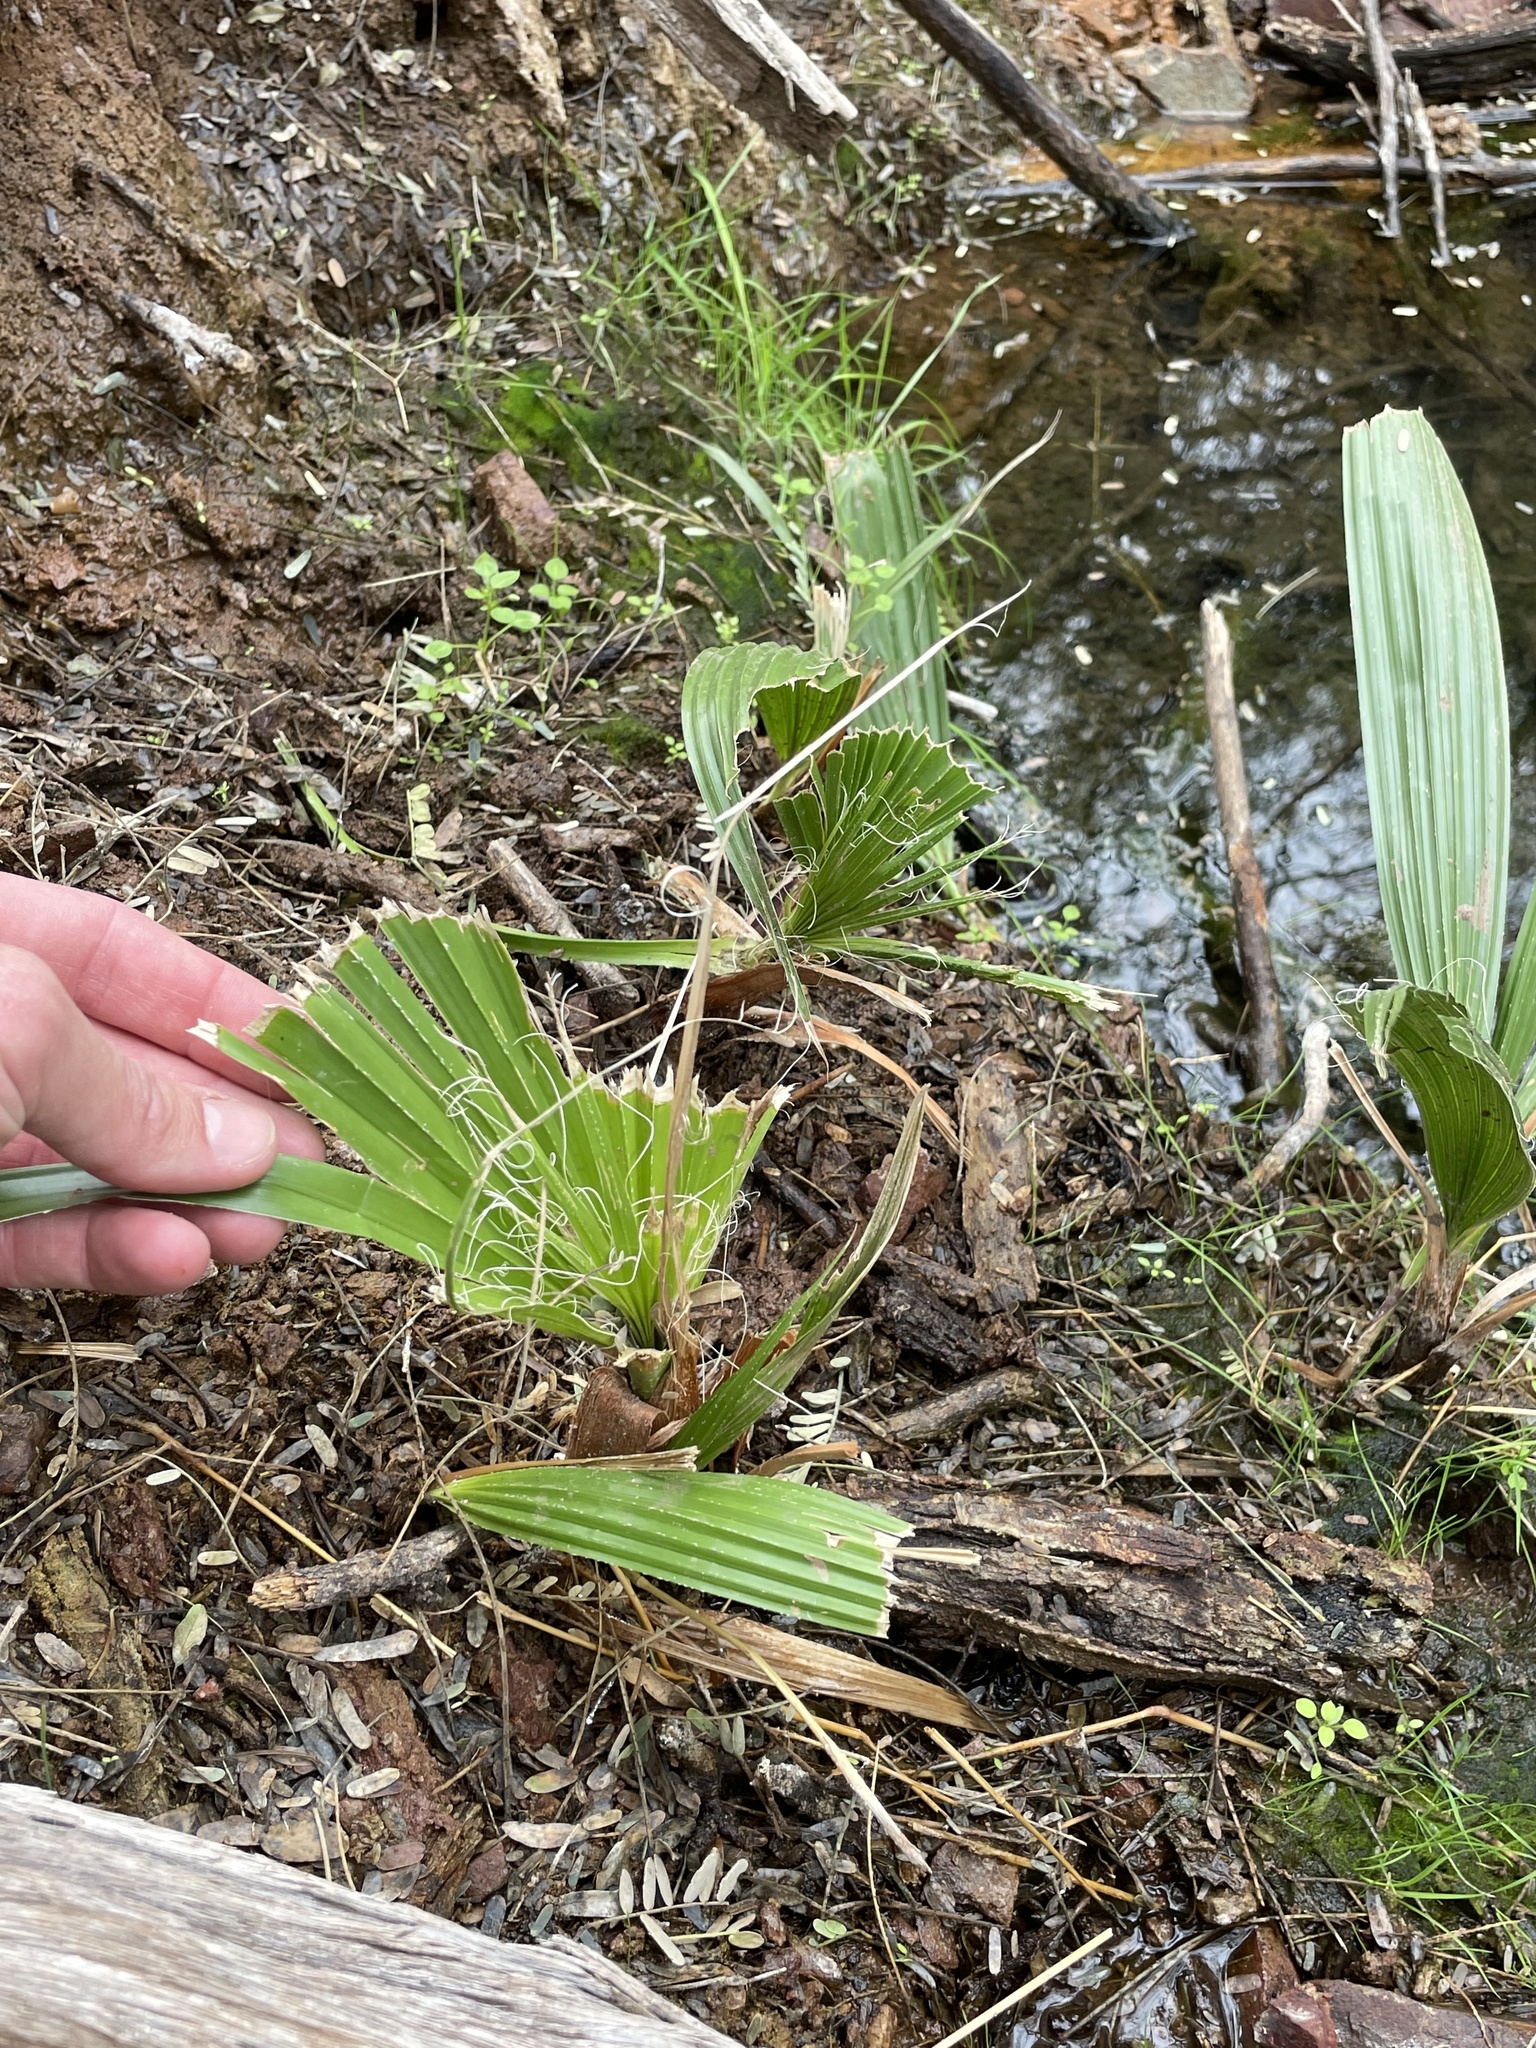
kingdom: Plantae
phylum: Tracheophyta
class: Liliopsida
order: Arecales
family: Arecaceae
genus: Washingtonia
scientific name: Washingtonia filifera
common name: California fan palm
